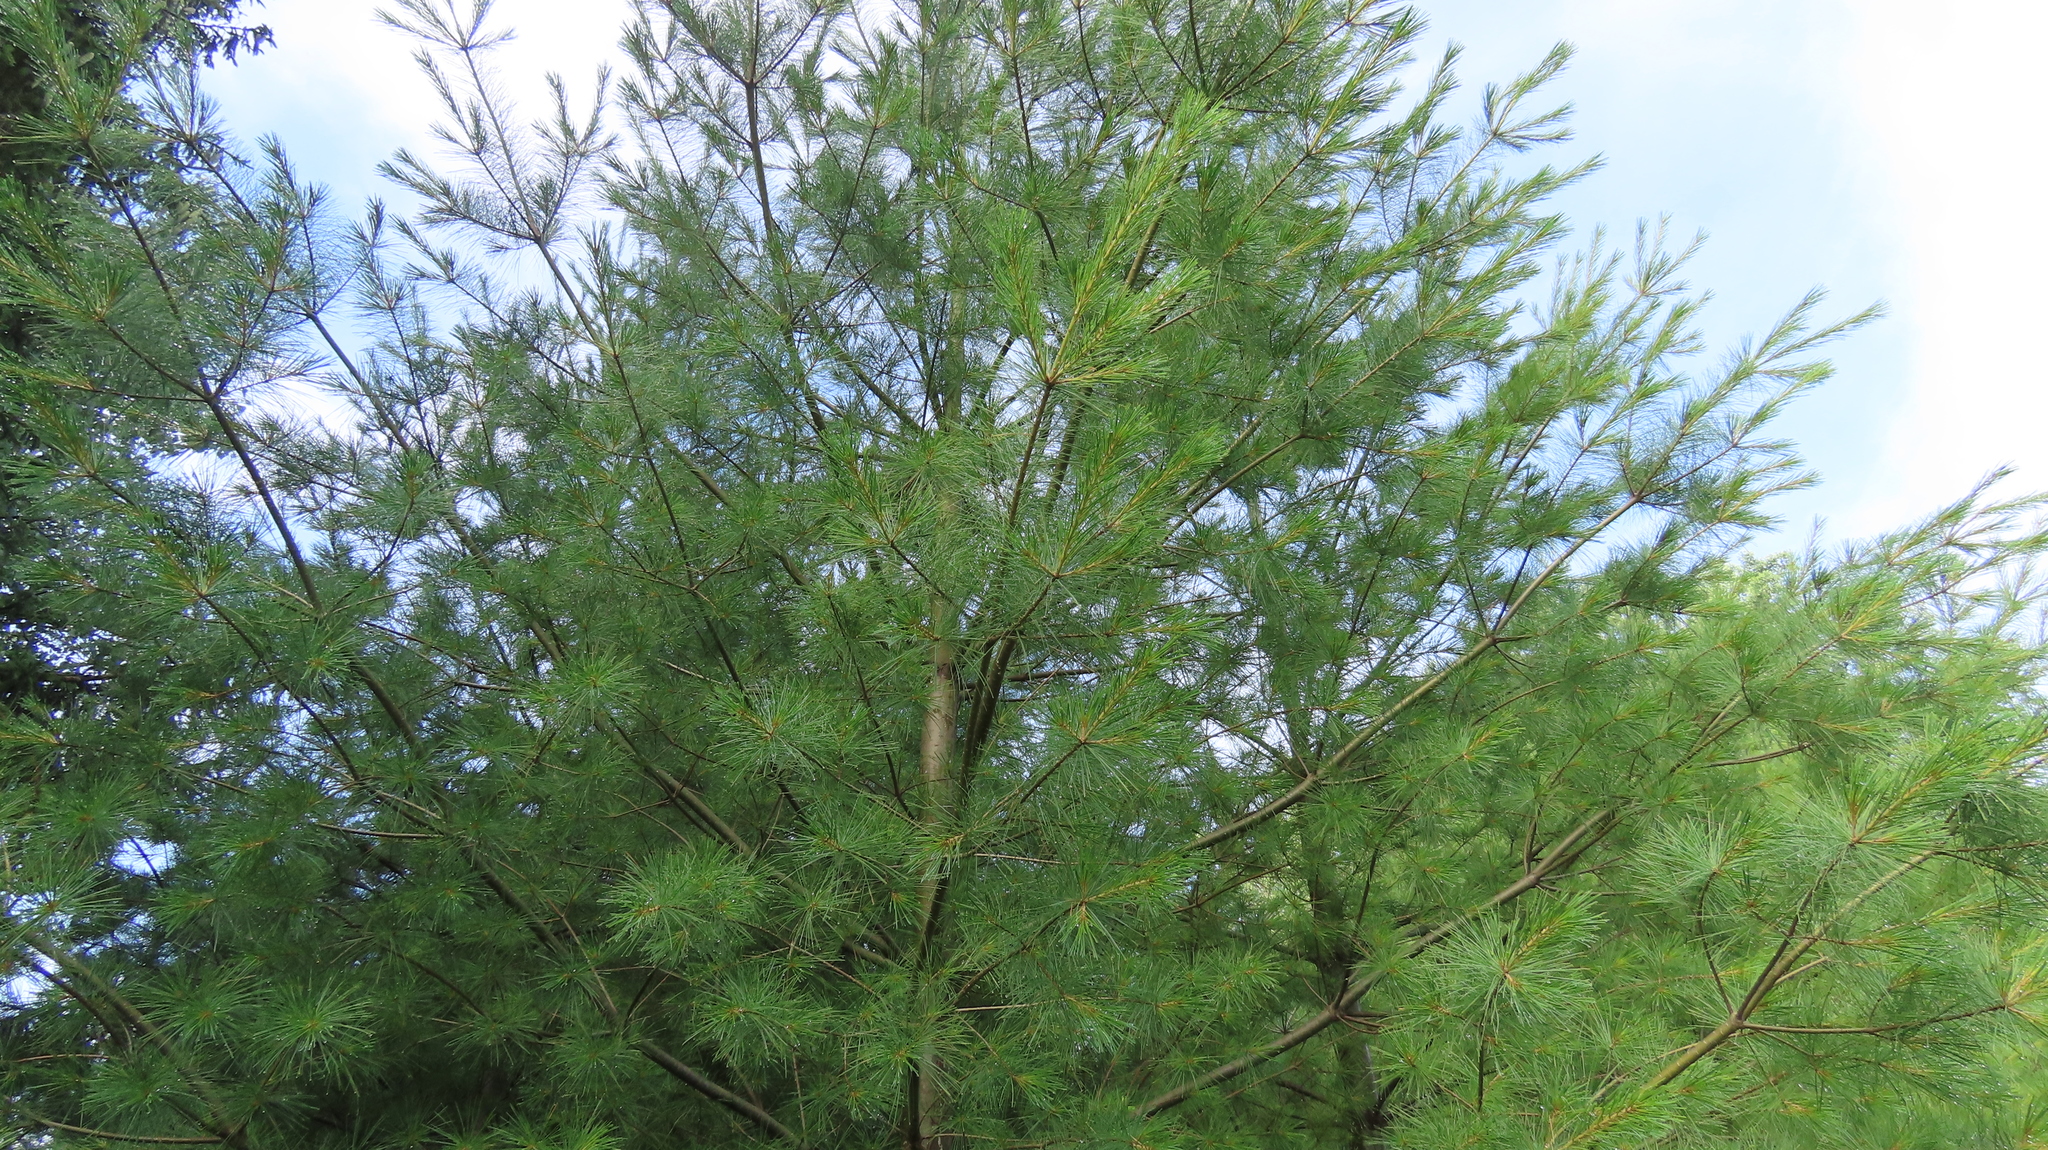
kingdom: Plantae
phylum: Tracheophyta
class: Pinopsida
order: Pinales
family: Pinaceae
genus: Pinus
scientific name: Pinus strobus
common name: Weymouth pine
